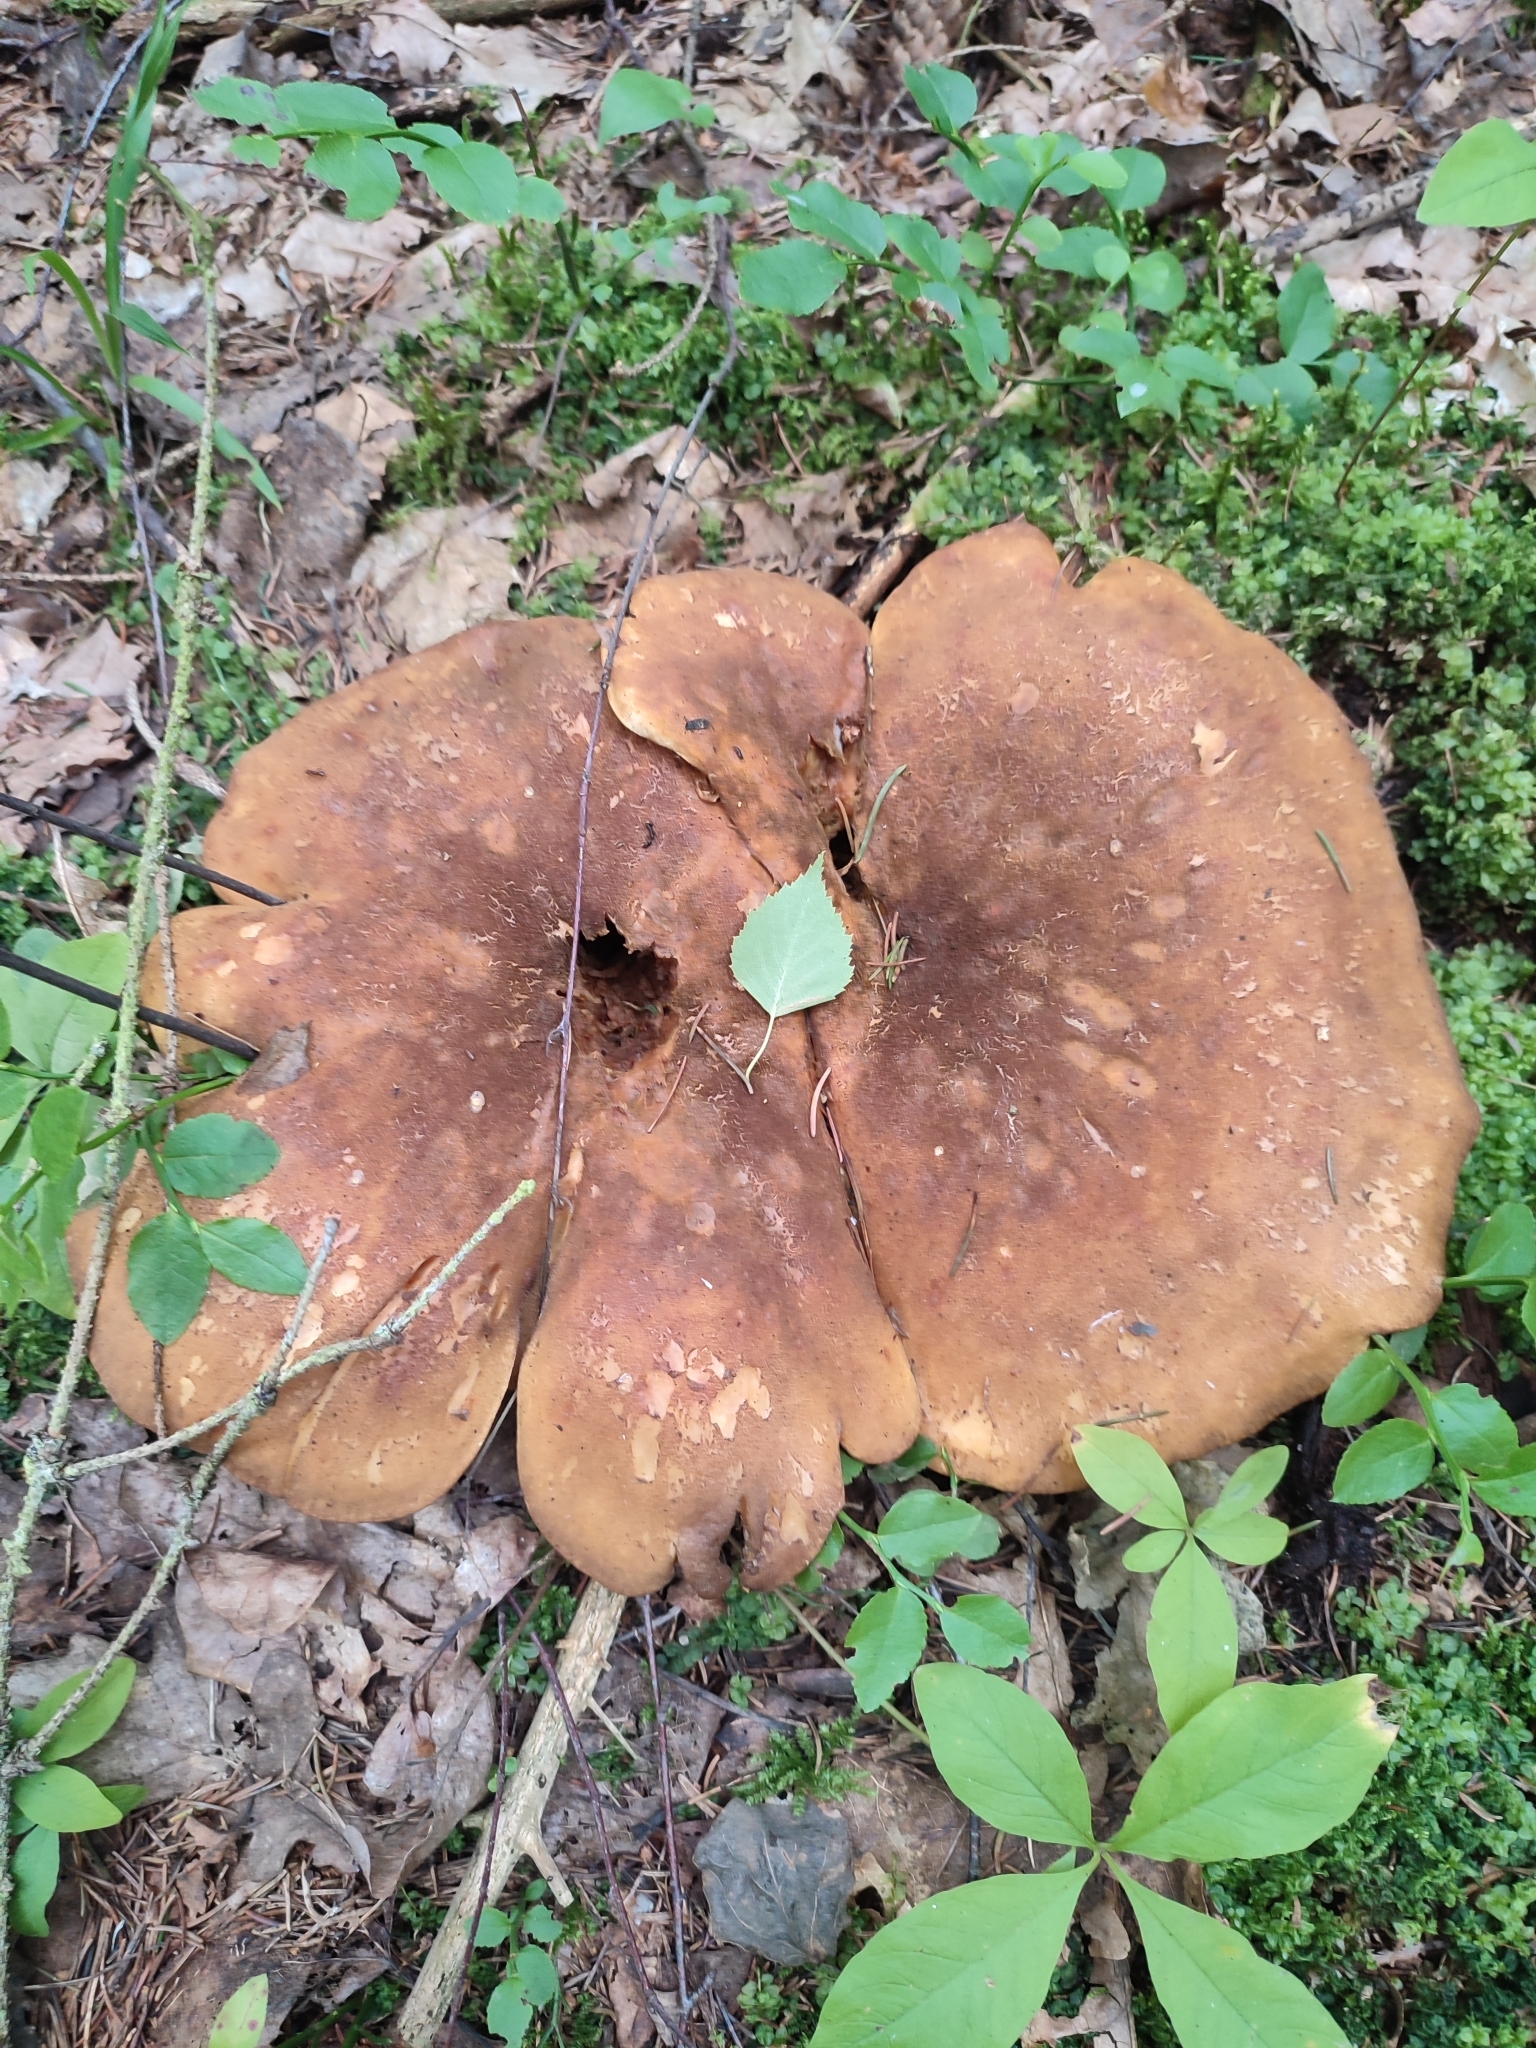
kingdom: Fungi
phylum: Basidiomycota
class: Agaricomycetes
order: Boletales
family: Tapinellaceae
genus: Tapinella
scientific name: Tapinella atrotomentosa
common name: Velvet rollrim
